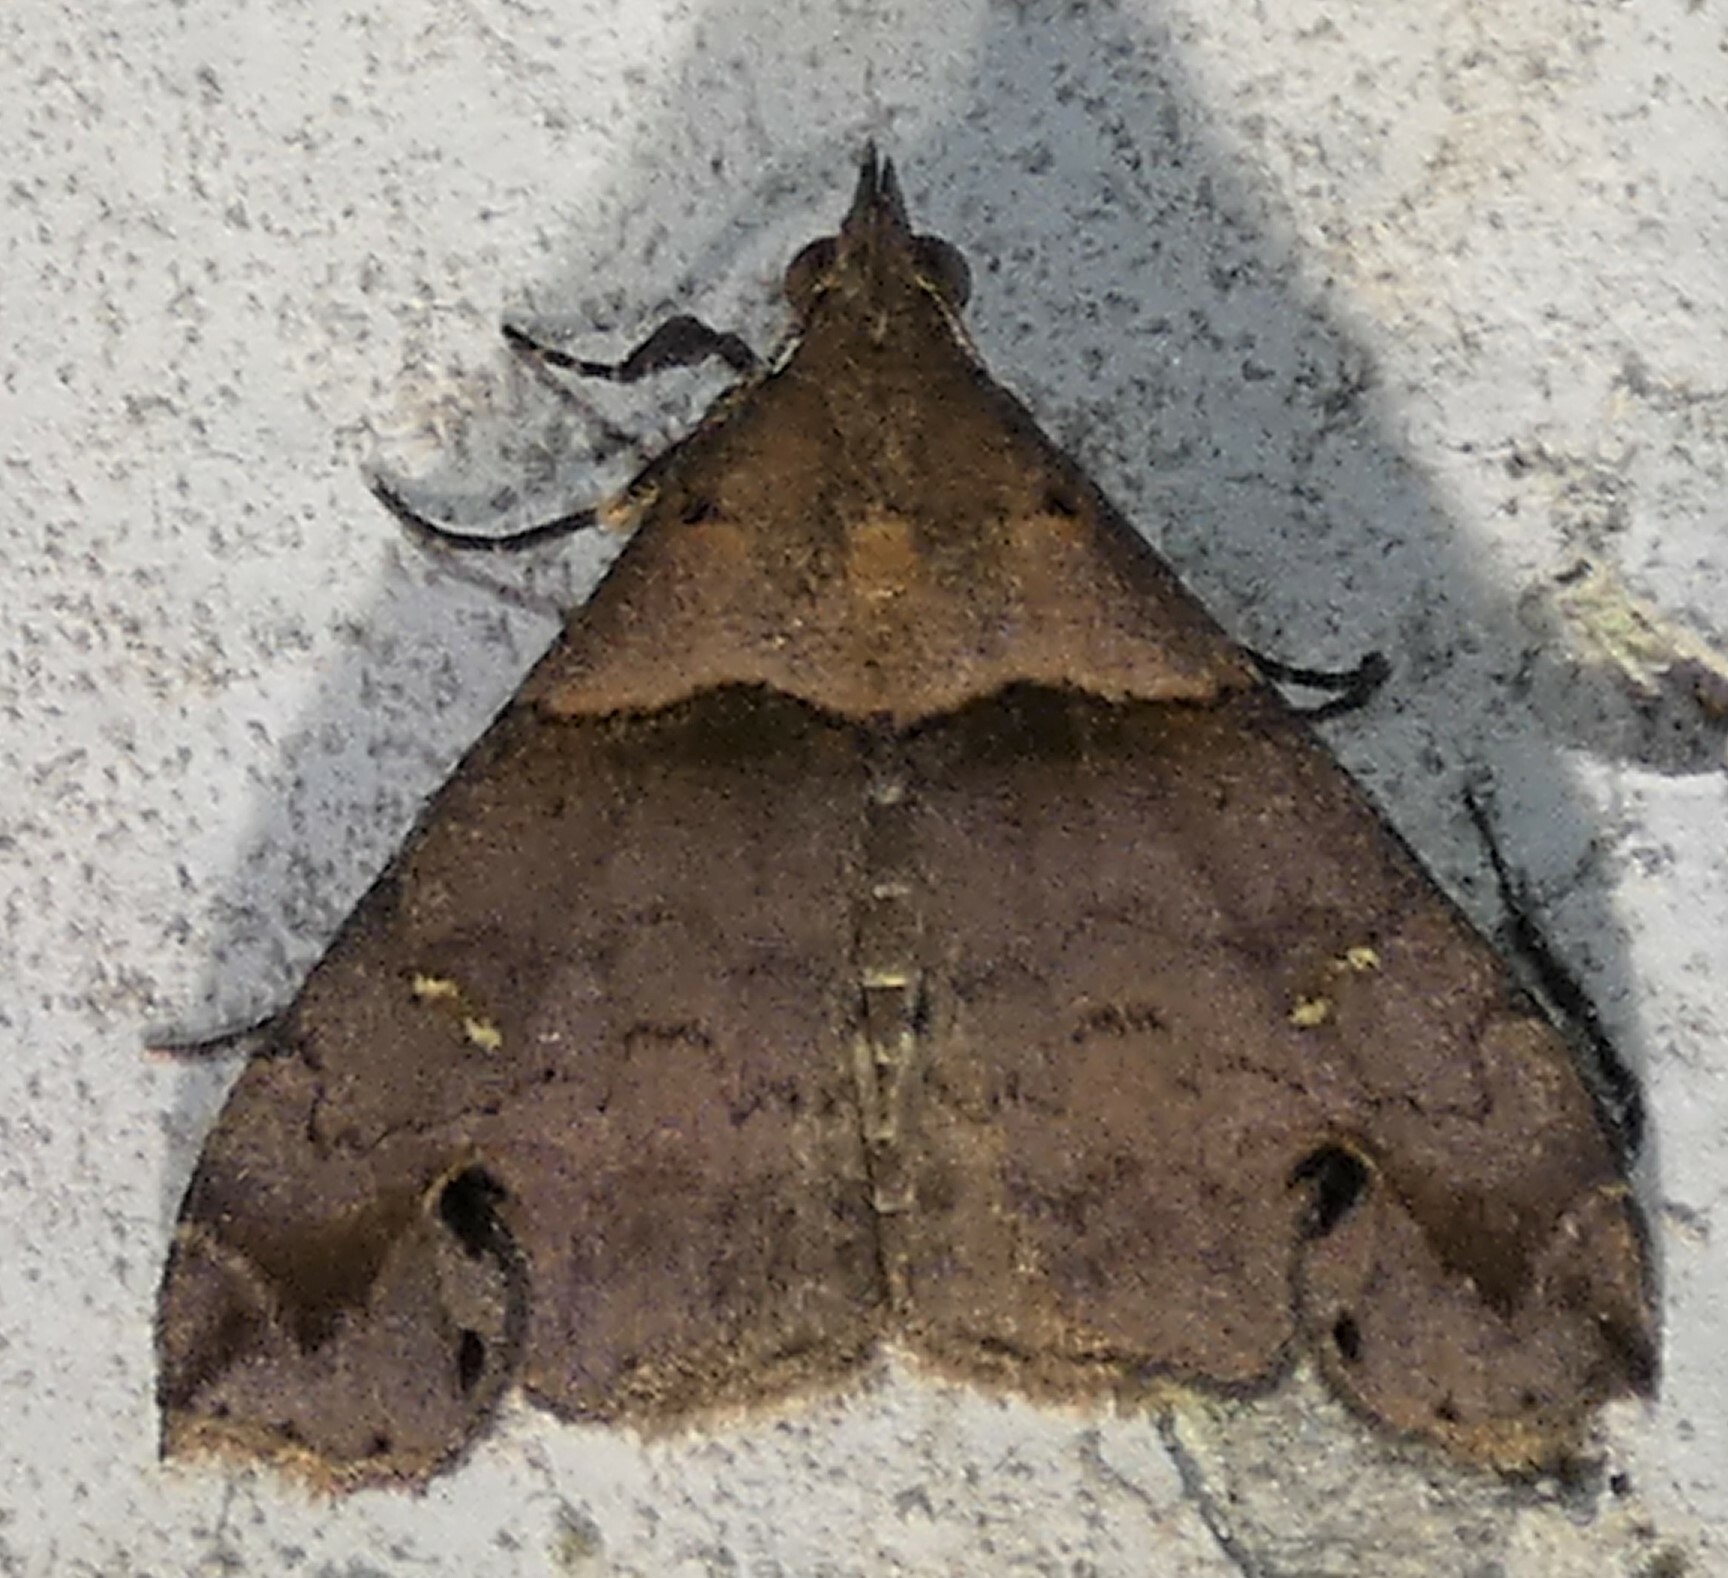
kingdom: Animalia
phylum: Arthropoda
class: Insecta
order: Lepidoptera
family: Erebidae
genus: Lascoria
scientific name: Lascoria ambigualis
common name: Ambiguous moth
